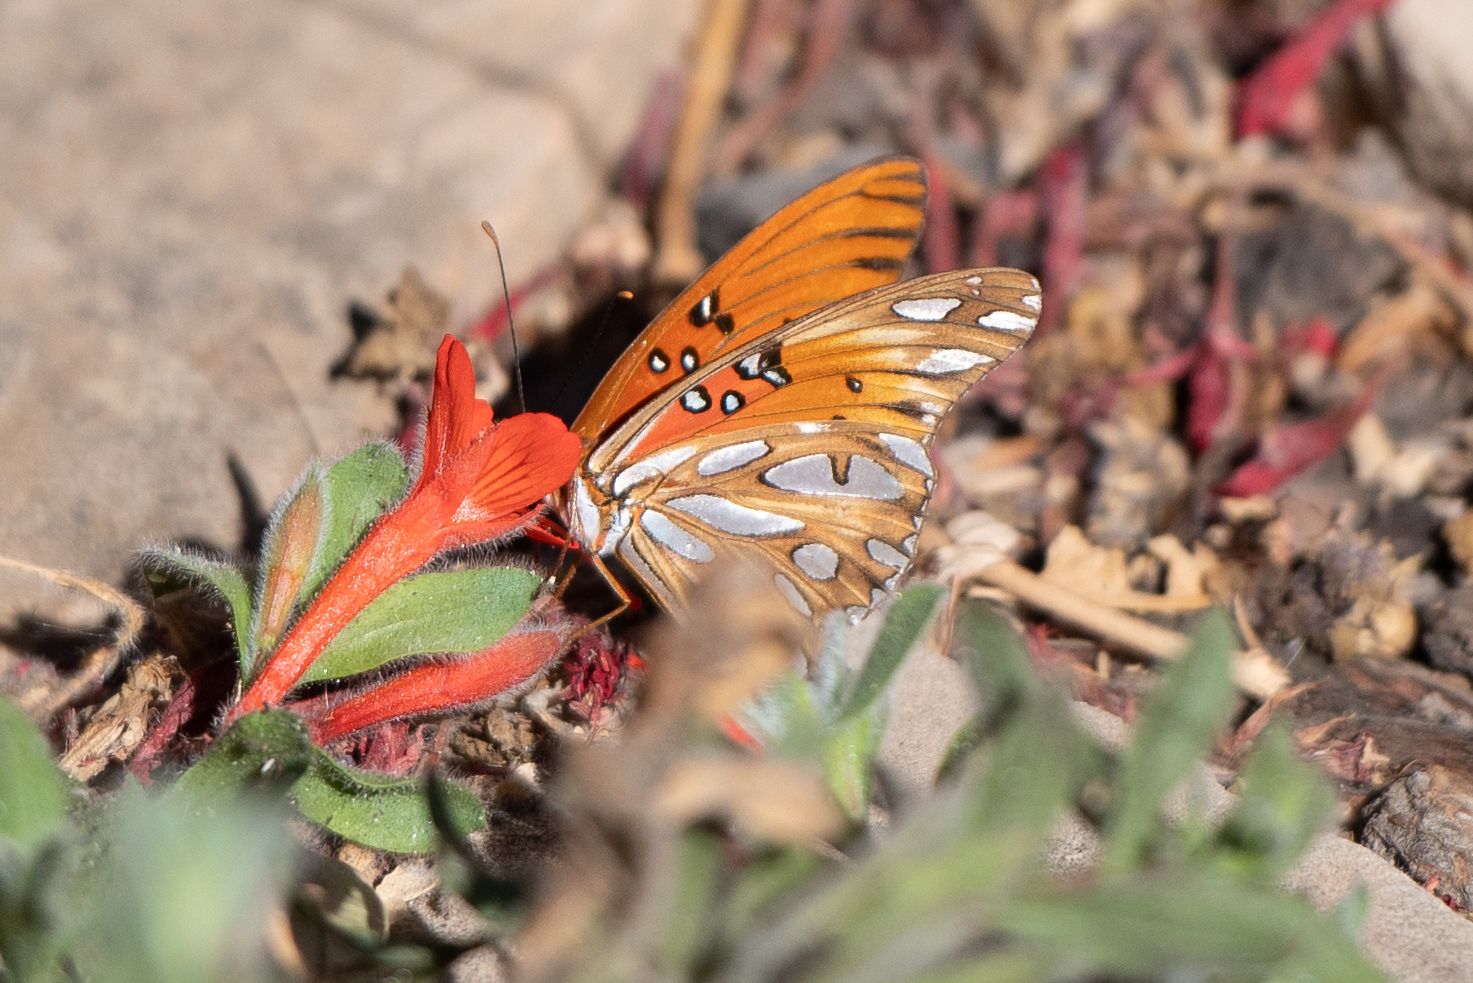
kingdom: Animalia
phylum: Arthropoda
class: Insecta
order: Lepidoptera
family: Nymphalidae
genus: Dione
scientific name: Dione vanillae
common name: Gulf fritillary
